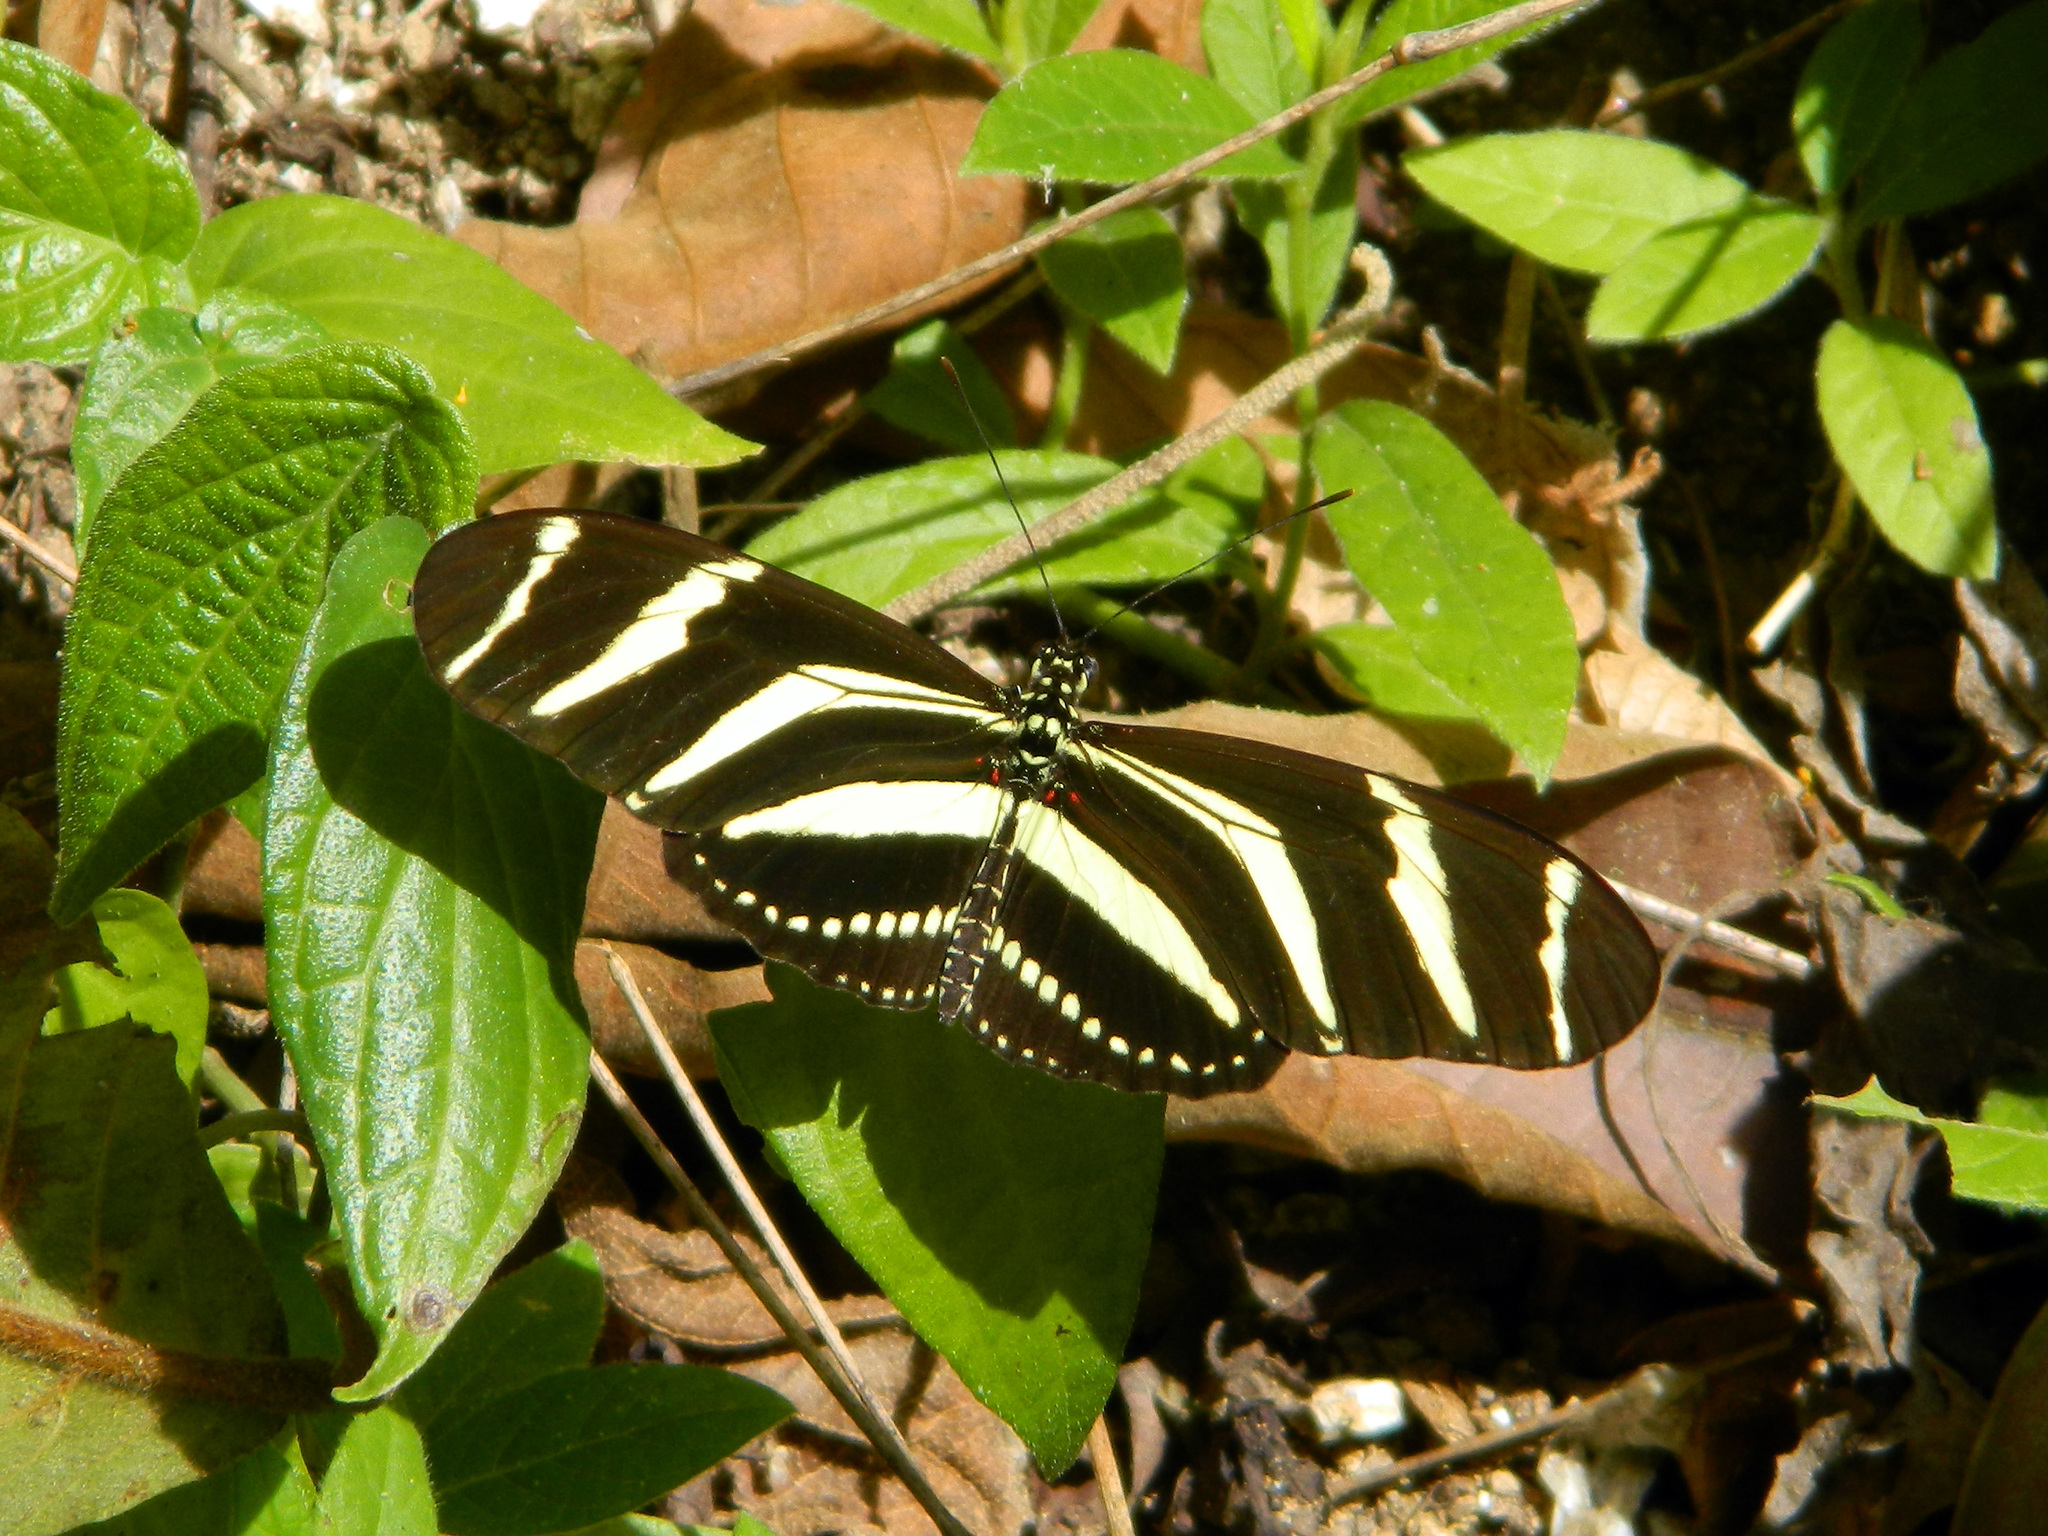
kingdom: Animalia
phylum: Arthropoda
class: Insecta
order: Lepidoptera
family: Nymphalidae
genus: Heliconius
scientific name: Heliconius charithonia
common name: Zebra long wing
